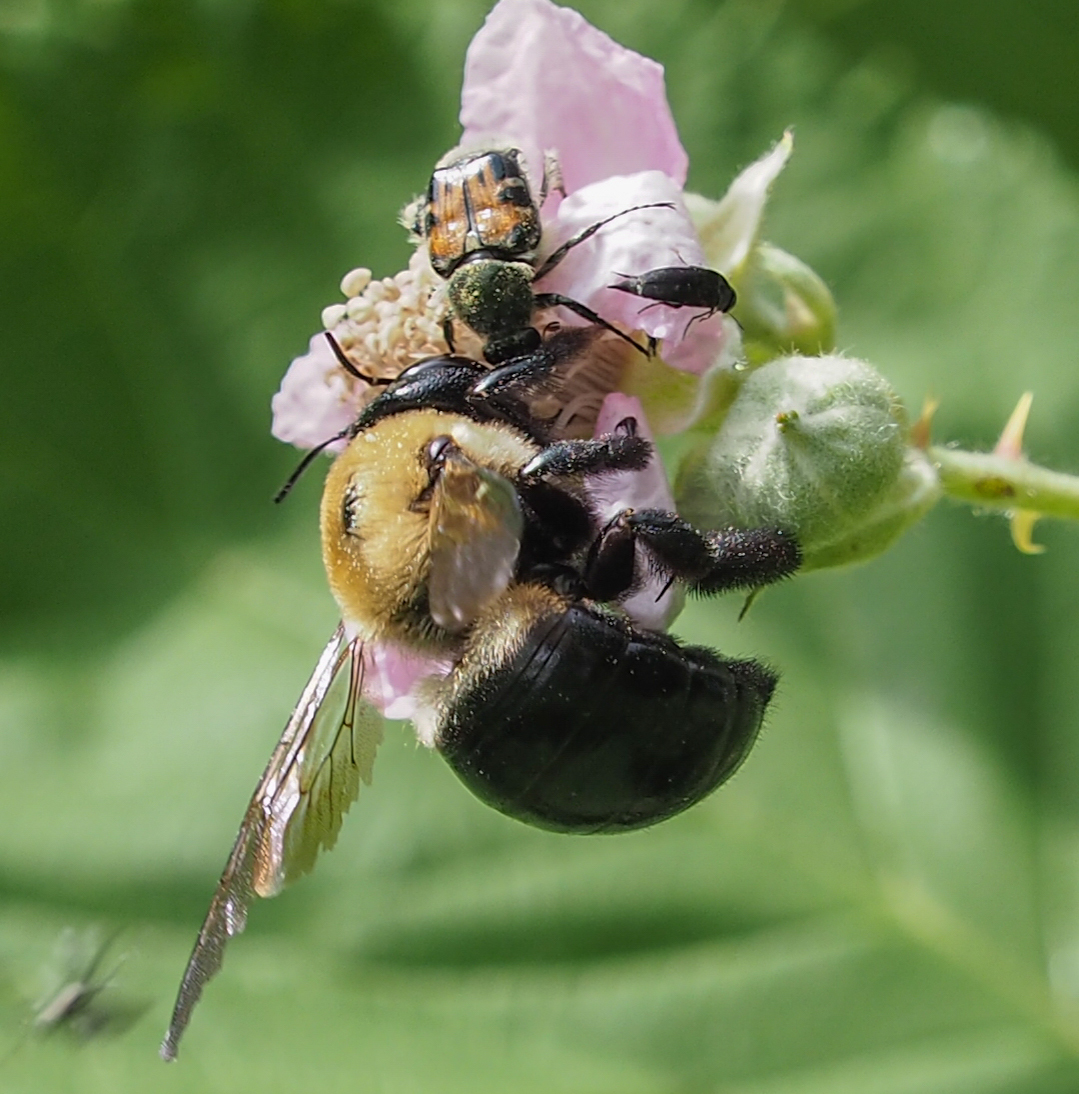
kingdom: Animalia
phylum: Arthropoda
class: Insecta
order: Hymenoptera
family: Apidae
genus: Xylocopa
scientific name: Xylocopa virginica
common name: Carpenter bee
